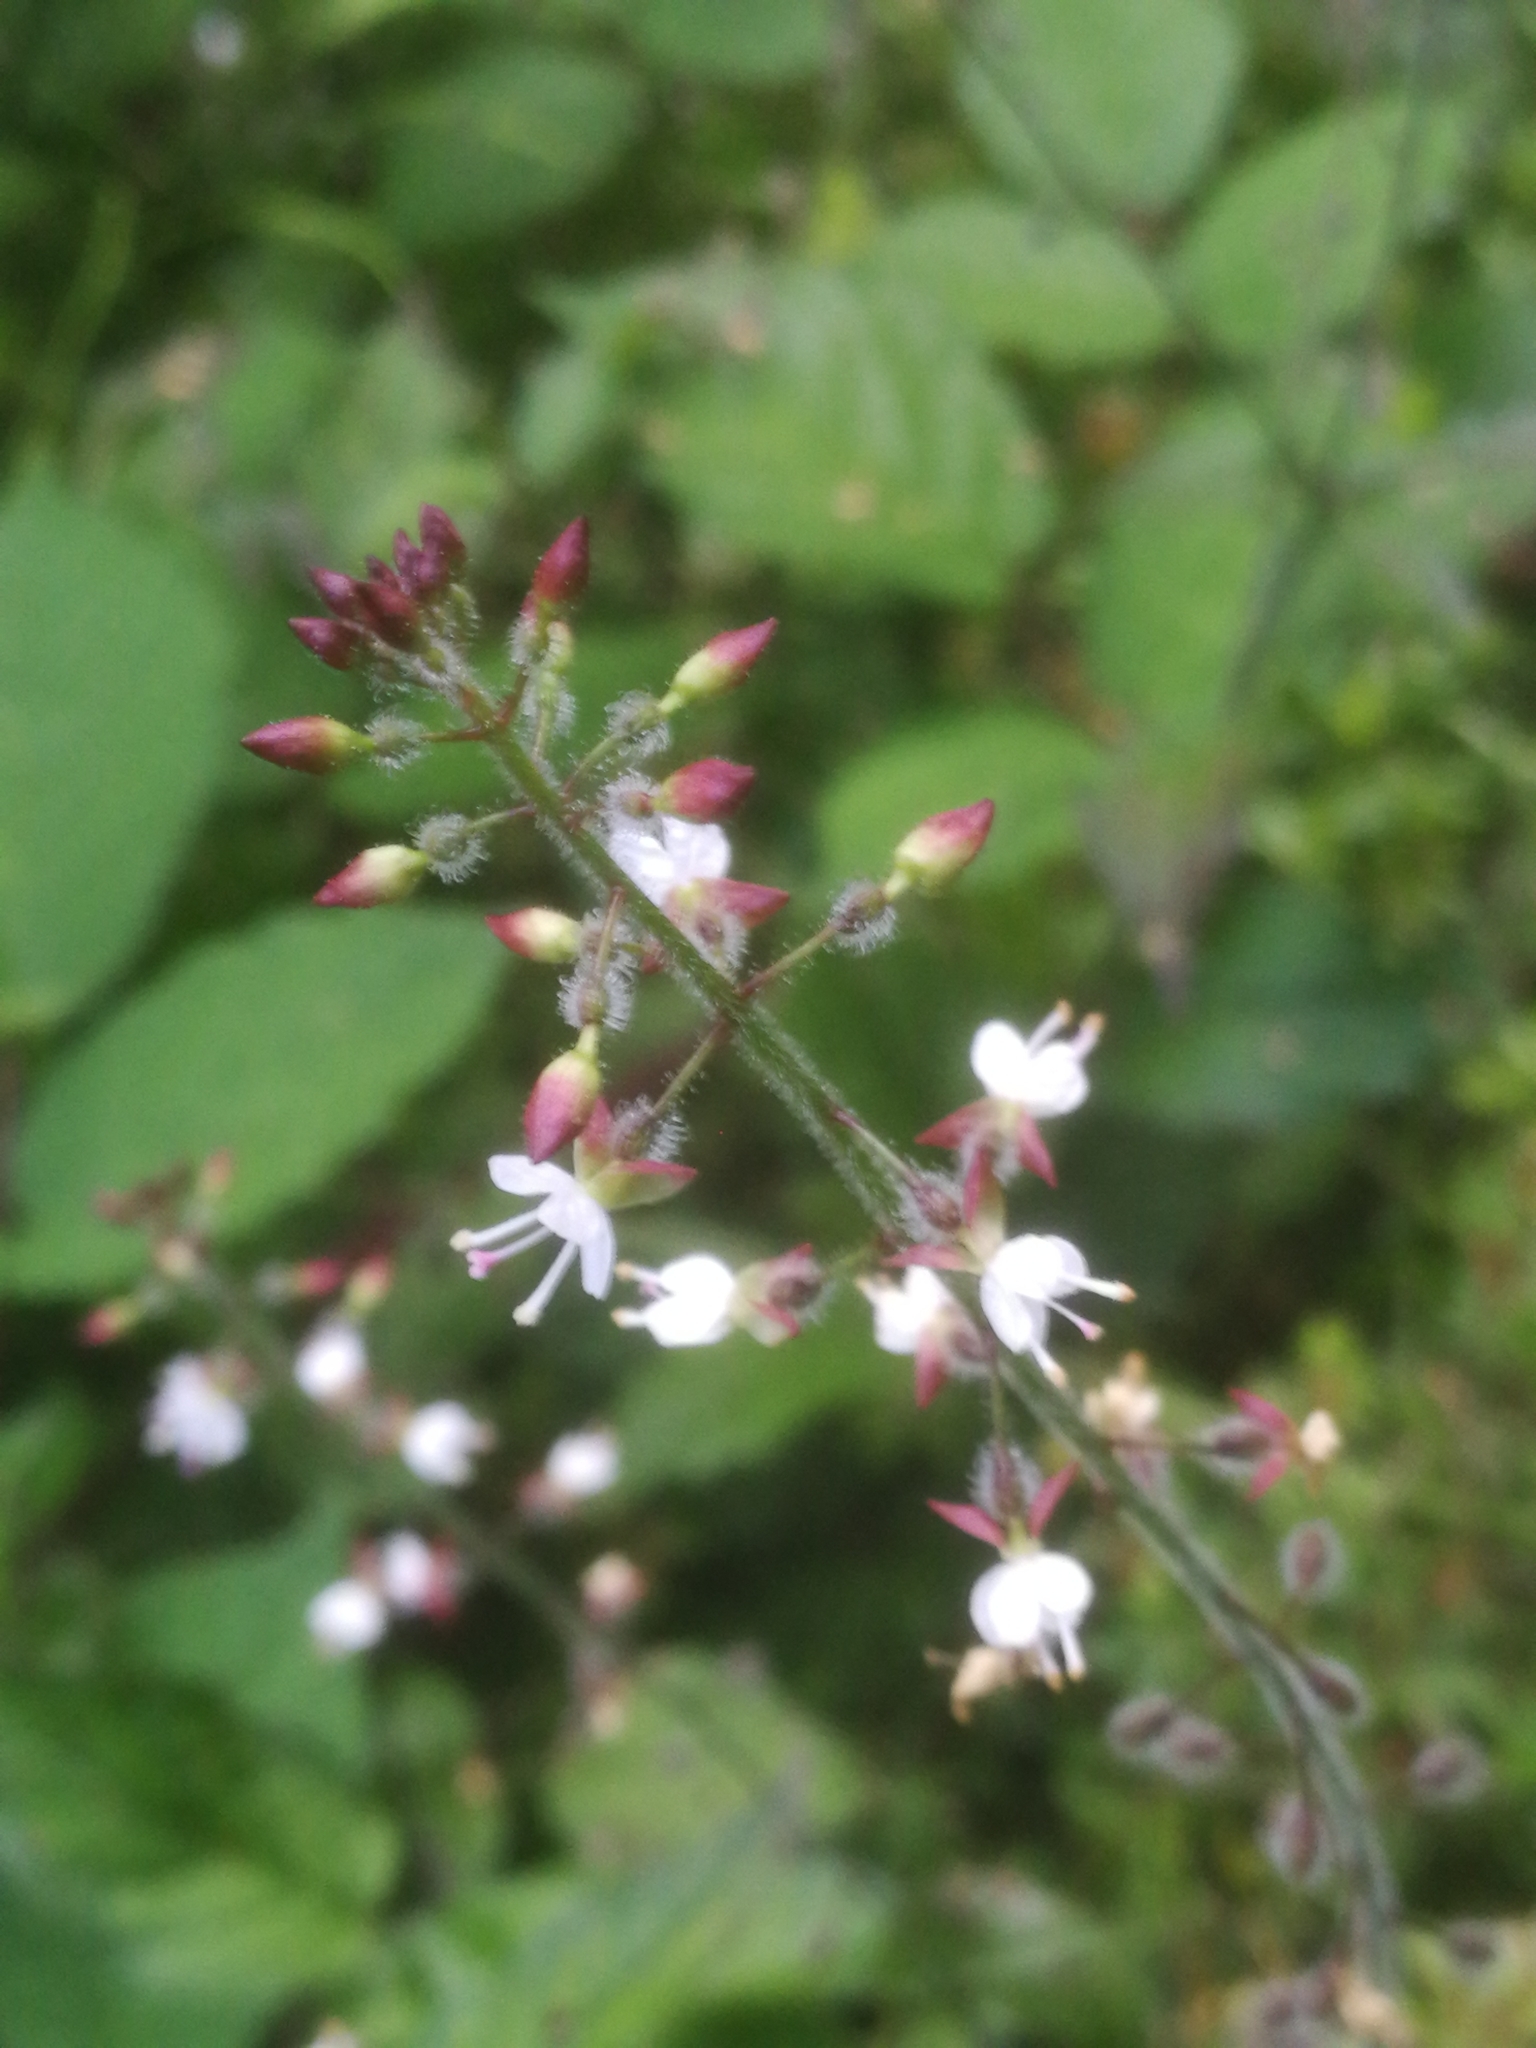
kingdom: Plantae
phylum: Tracheophyta
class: Magnoliopsida
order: Myrtales
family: Onagraceae
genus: Circaea
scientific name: Circaea lutetiana
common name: Enchanter's-nightshade
